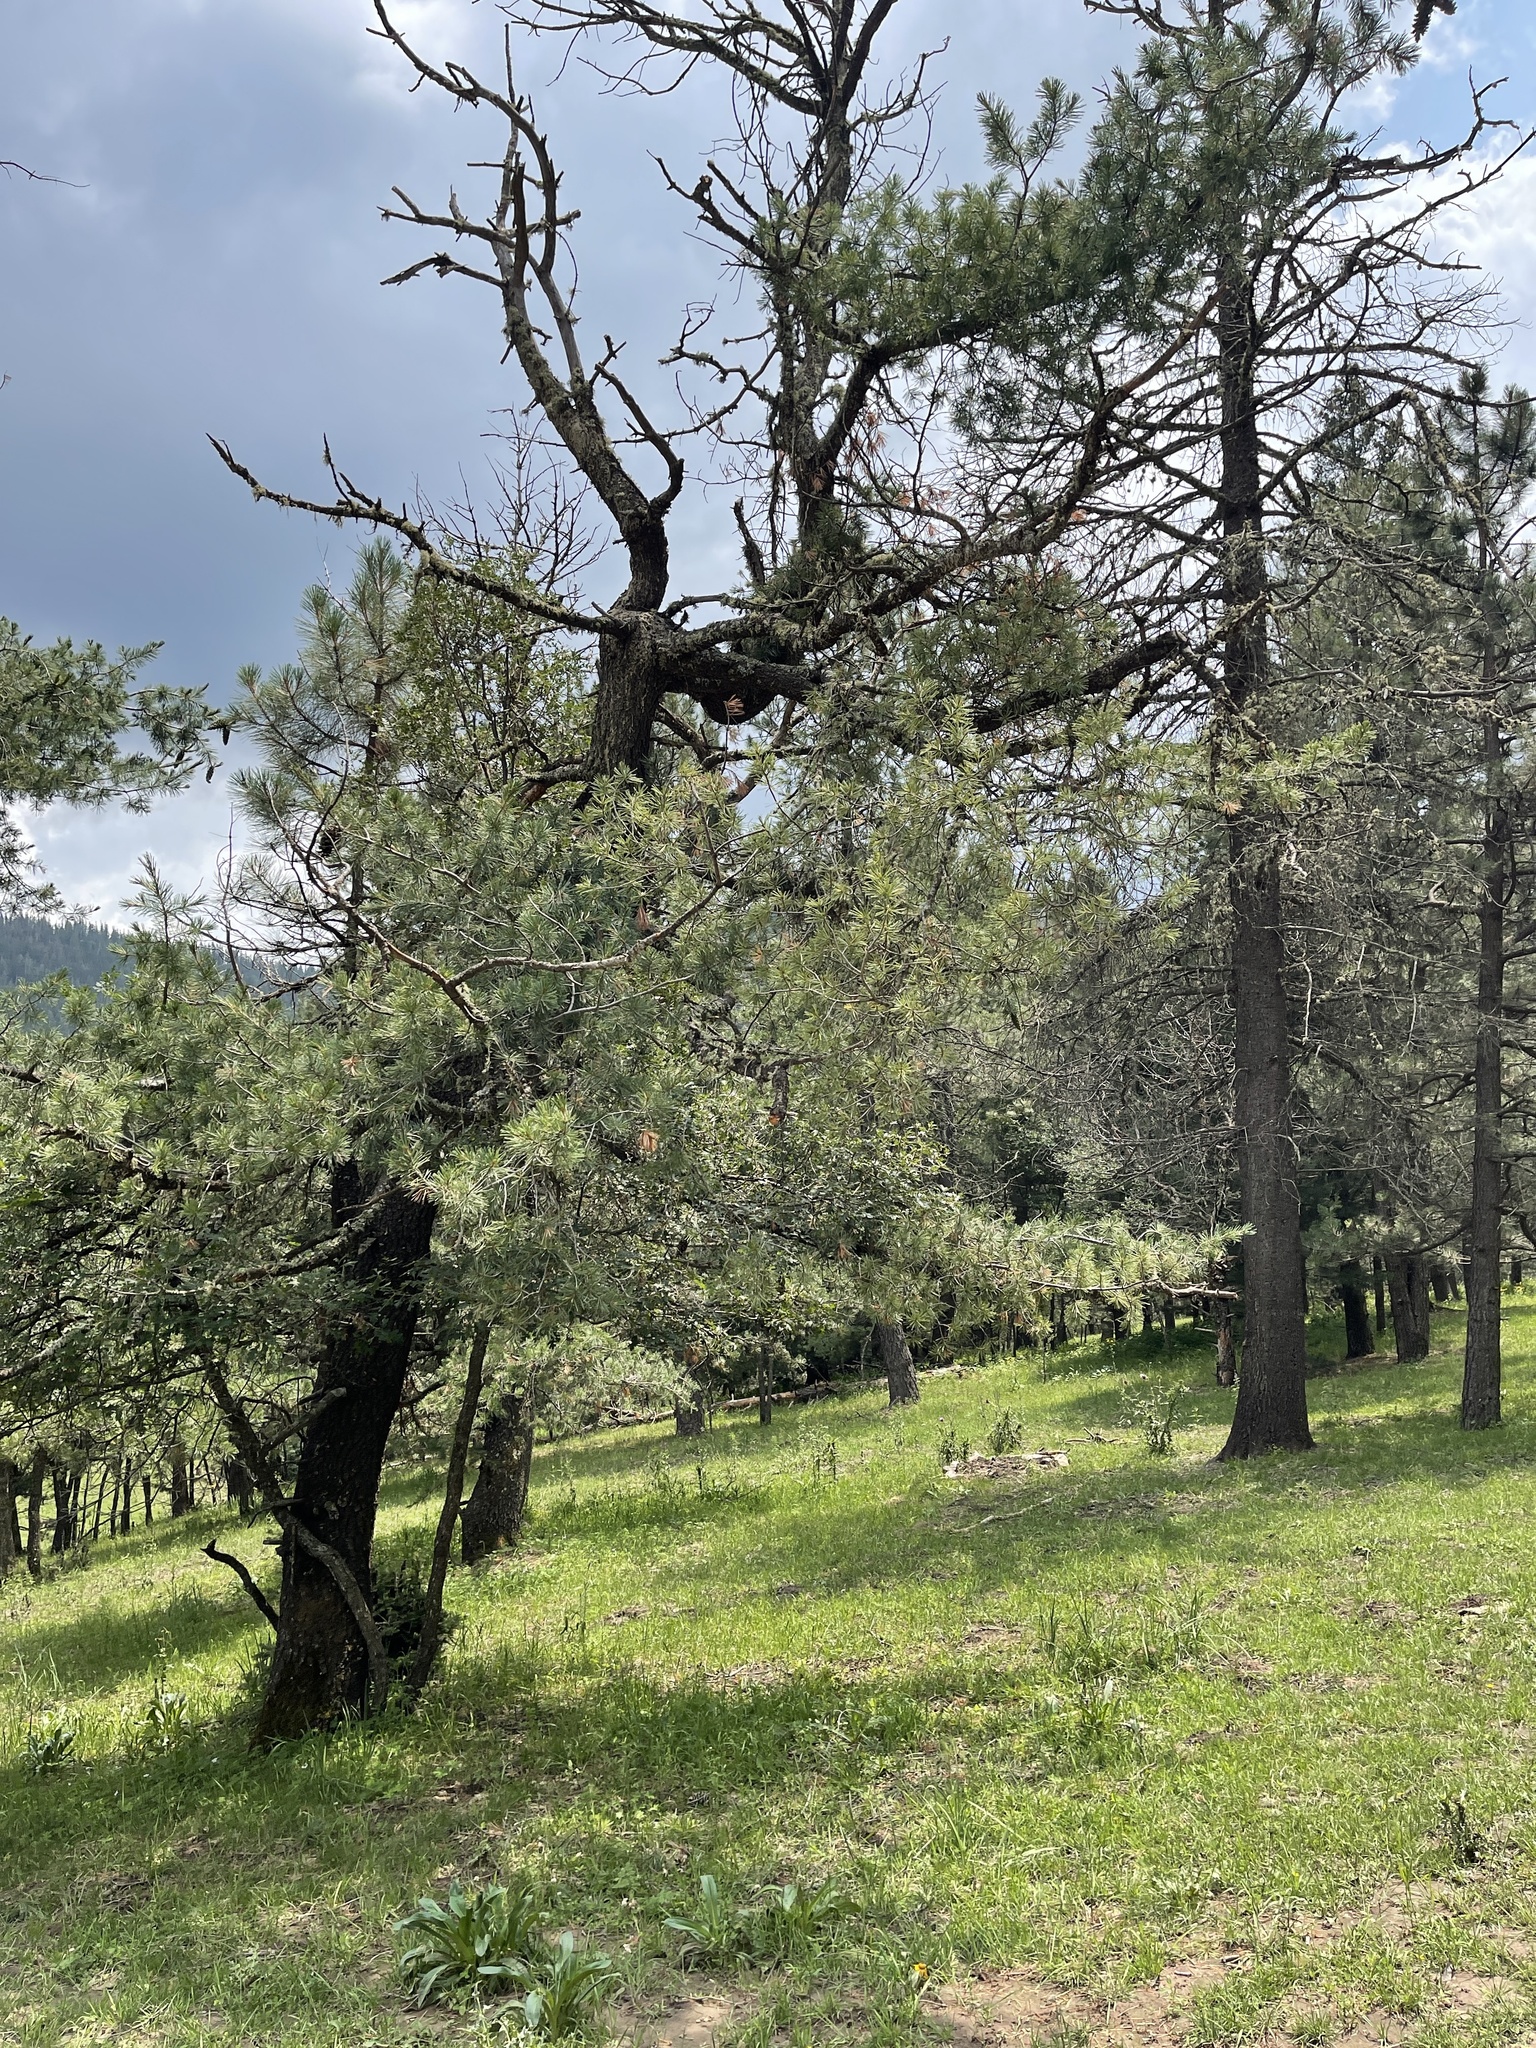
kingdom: Plantae
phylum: Tracheophyta
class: Pinopsida
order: Pinales
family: Pinaceae
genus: Pinus
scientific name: Pinus strobiformis
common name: Southwestern white pine
